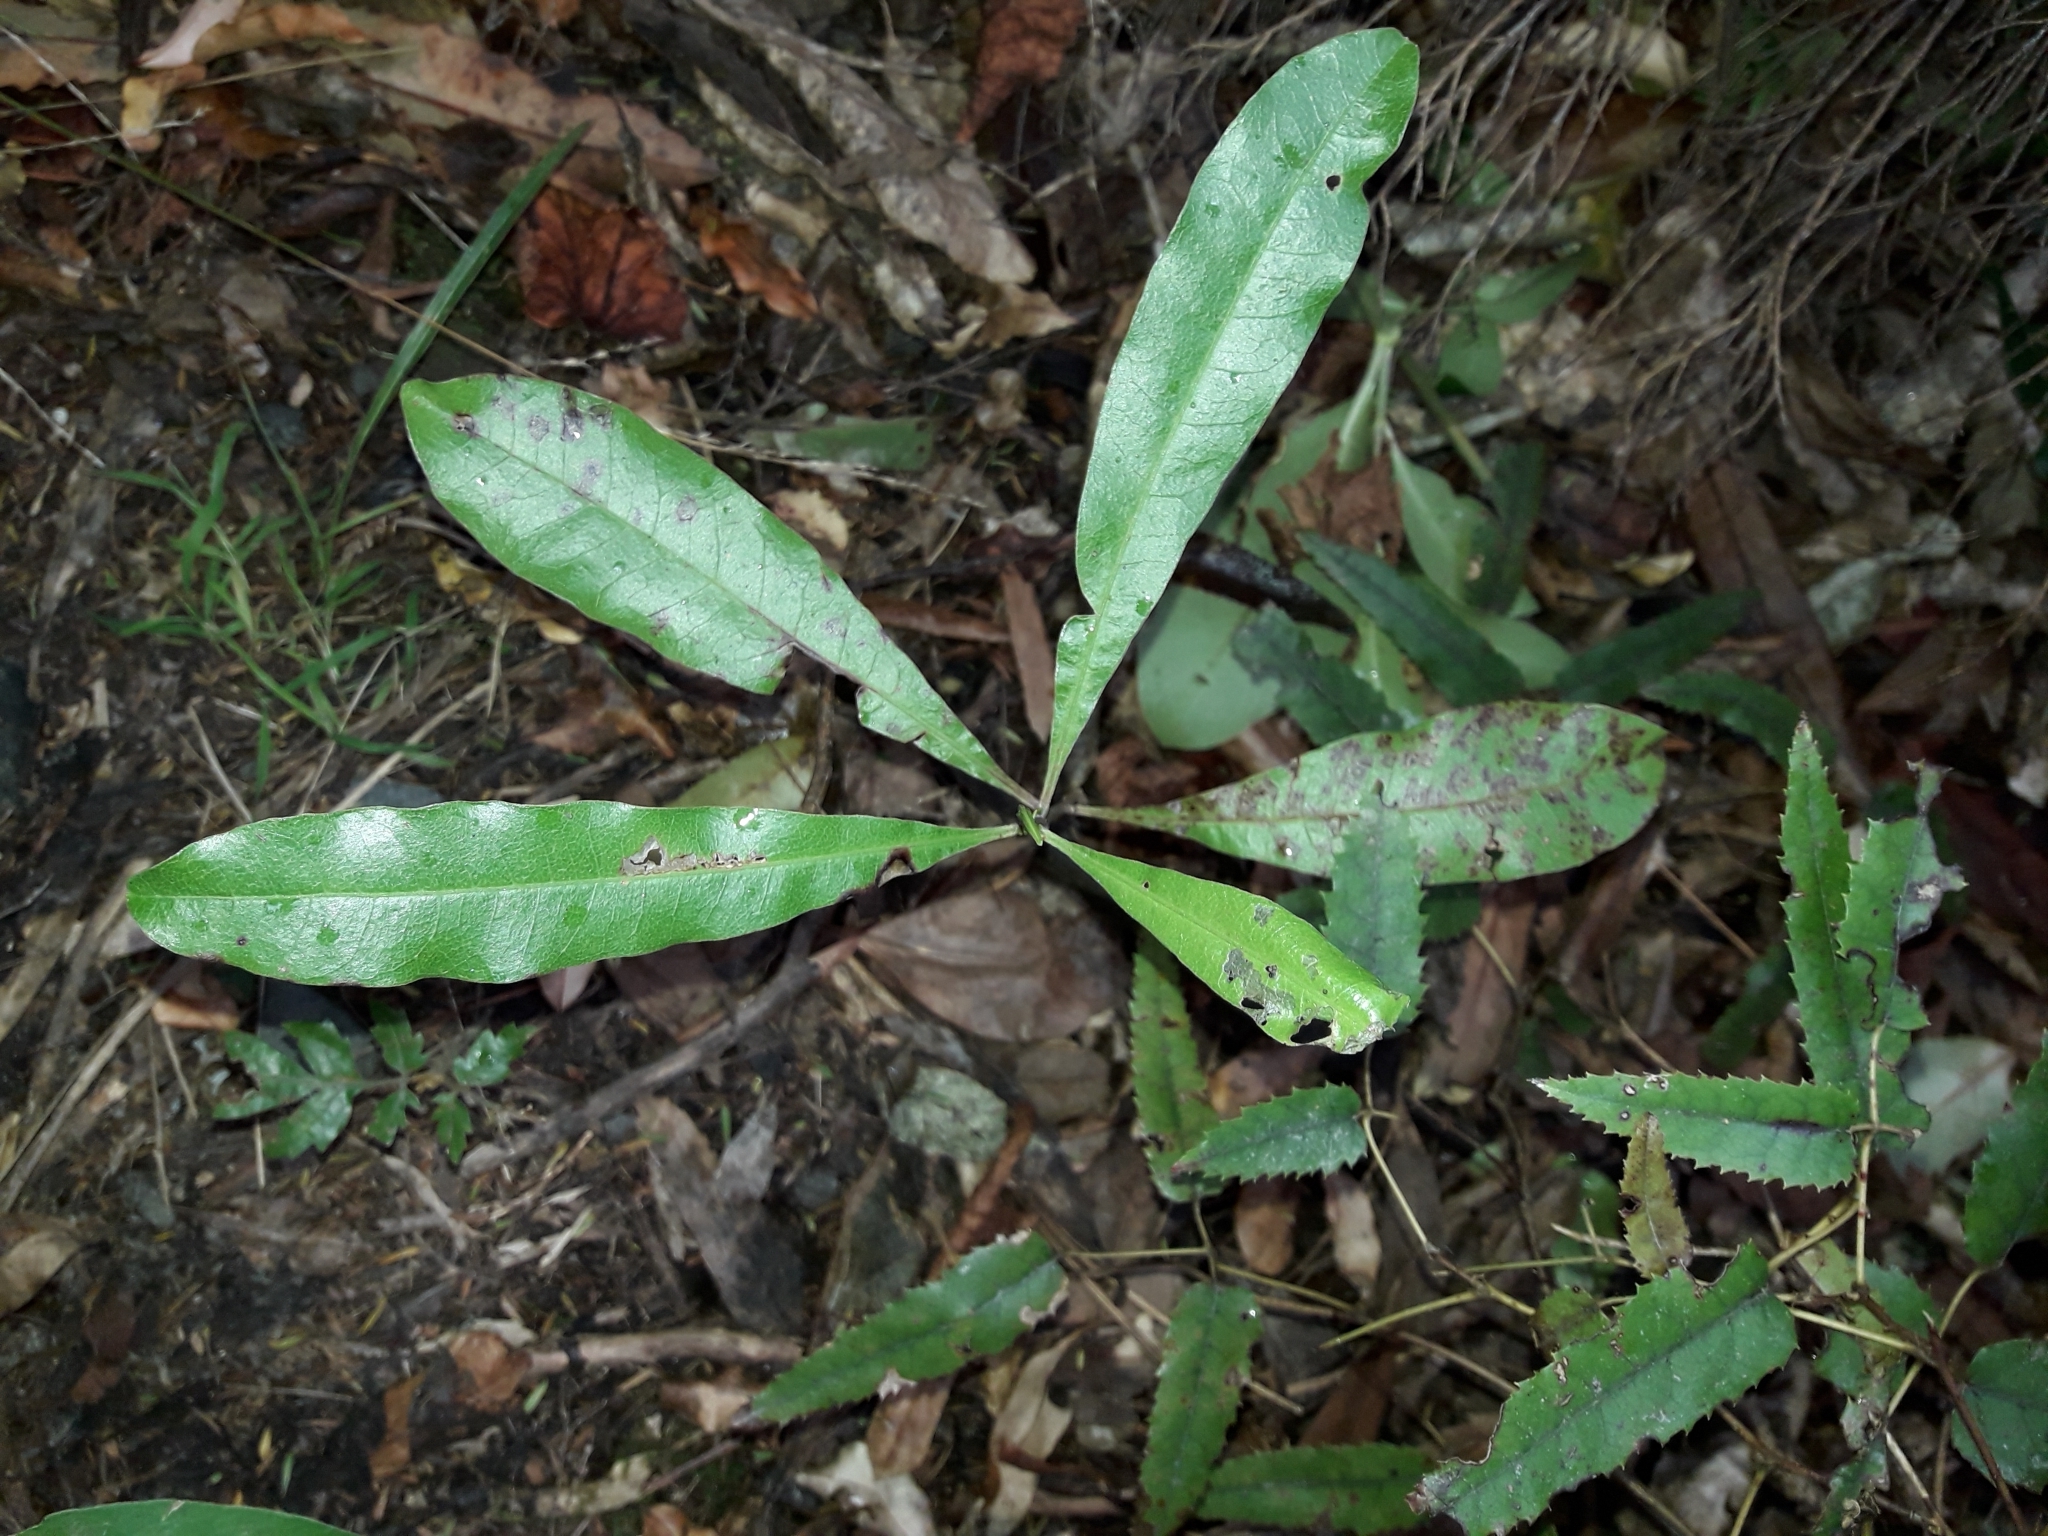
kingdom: Plantae
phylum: Tracheophyta
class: Magnoliopsida
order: Sapindales
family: Sapindaceae
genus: Dodonaea
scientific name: Dodonaea viscosa
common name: Hopbush
